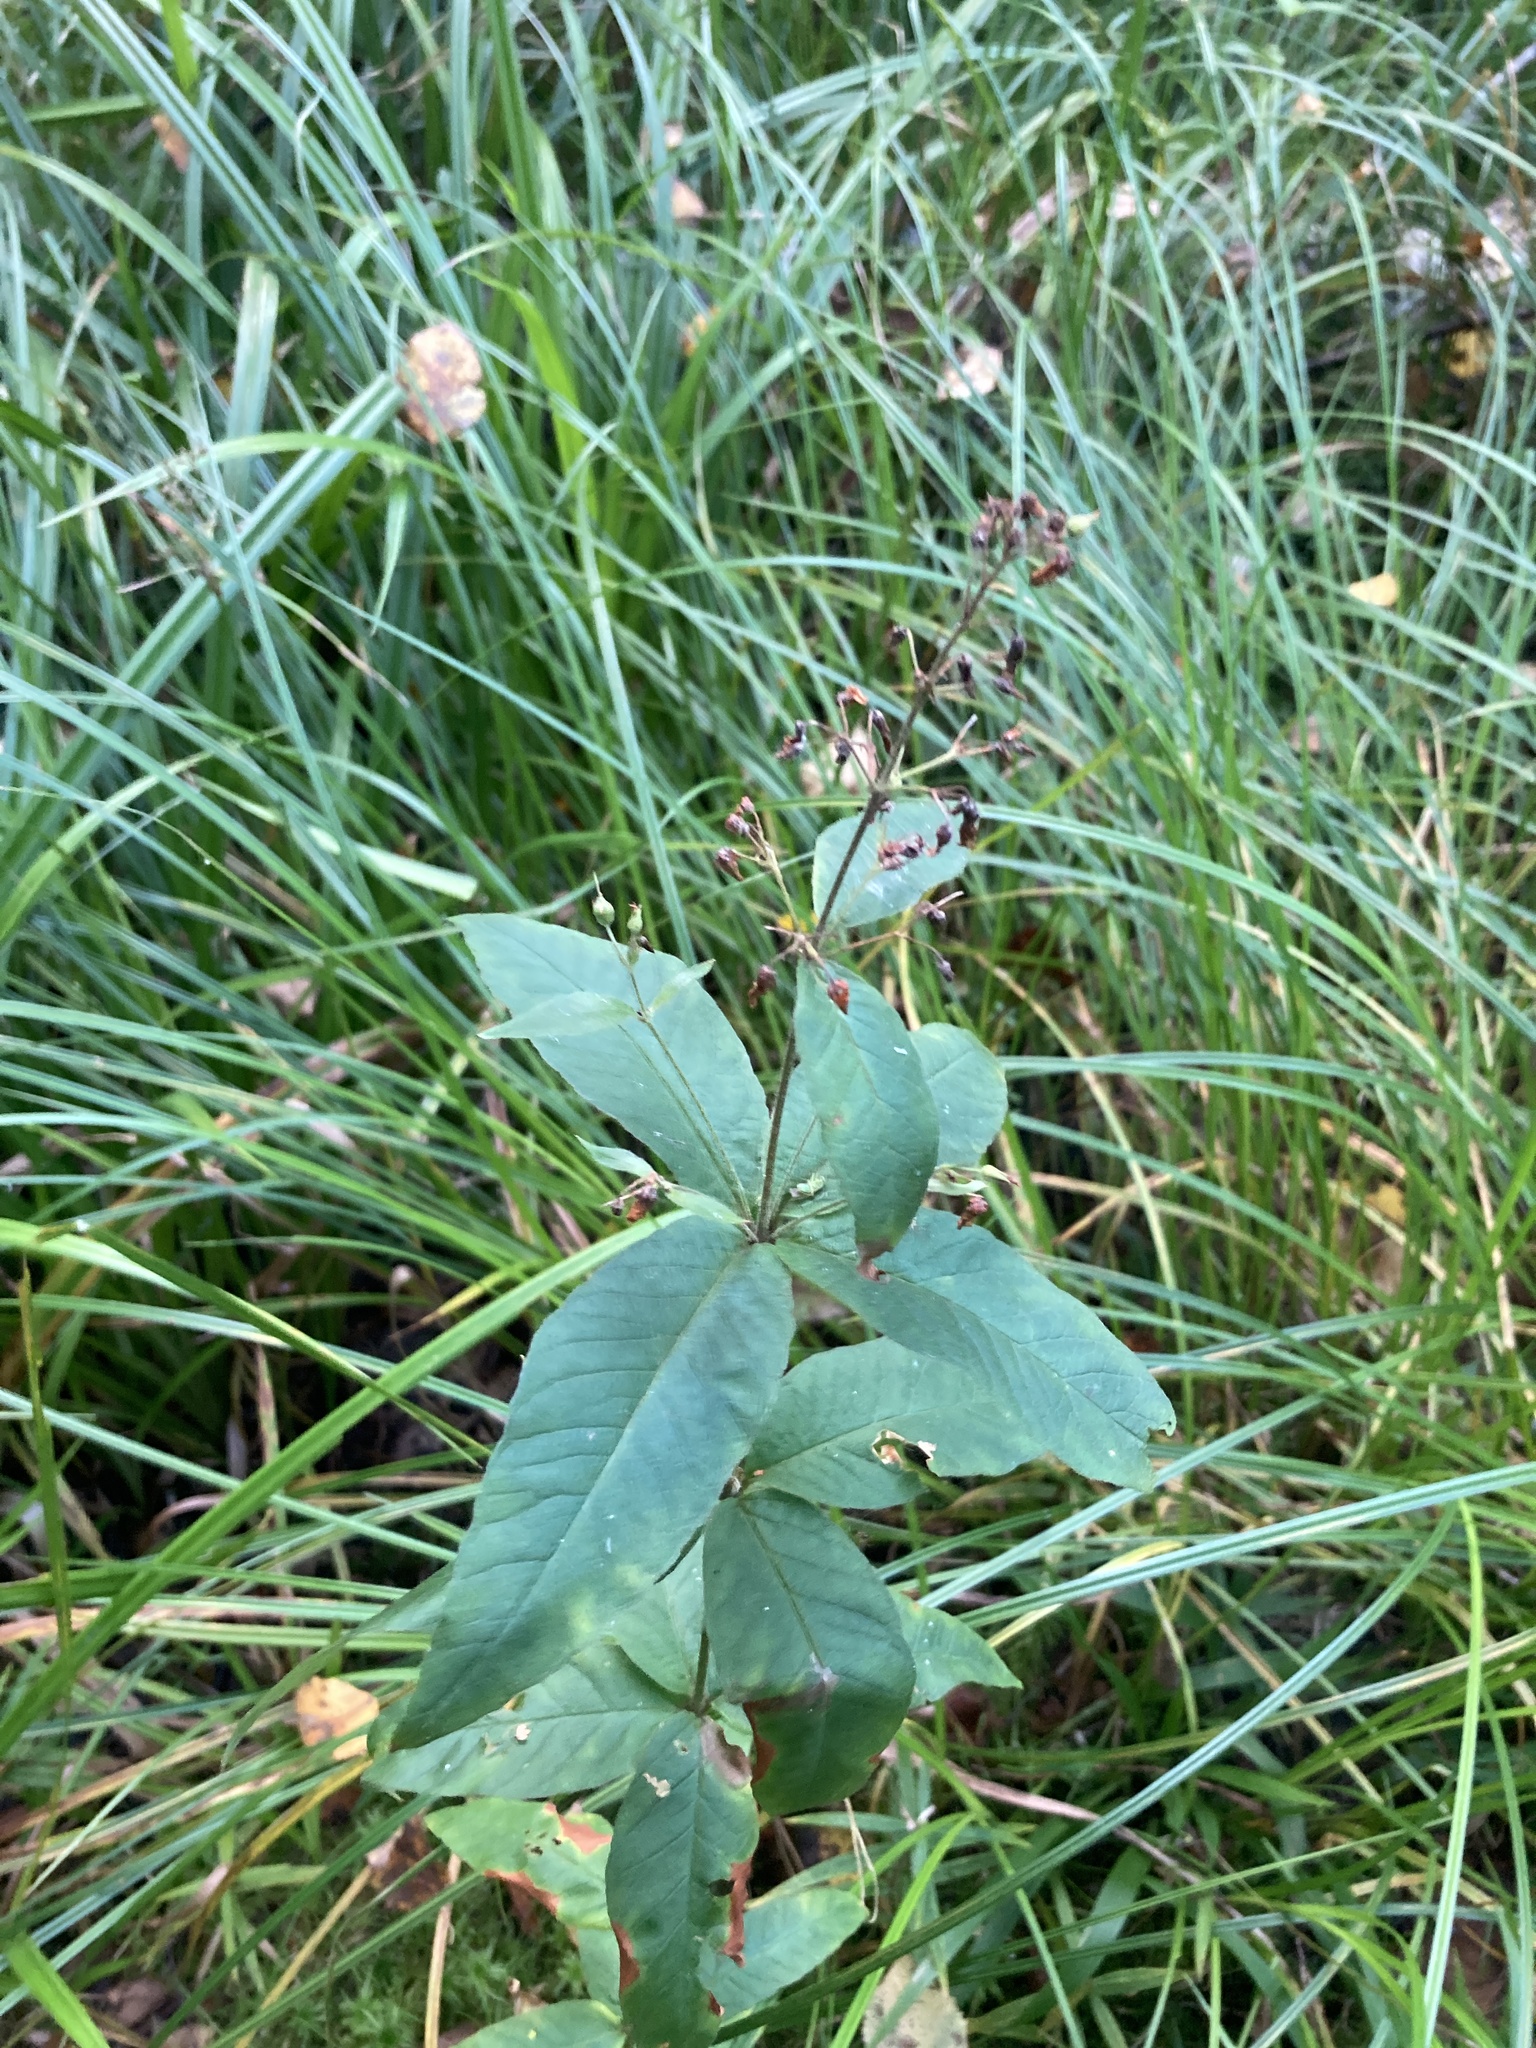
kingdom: Plantae
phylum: Tracheophyta
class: Magnoliopsida
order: Ericales
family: Primulaceae
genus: Lysimachia
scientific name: Lysimachia vulgaris
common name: Yellow loosestrife
